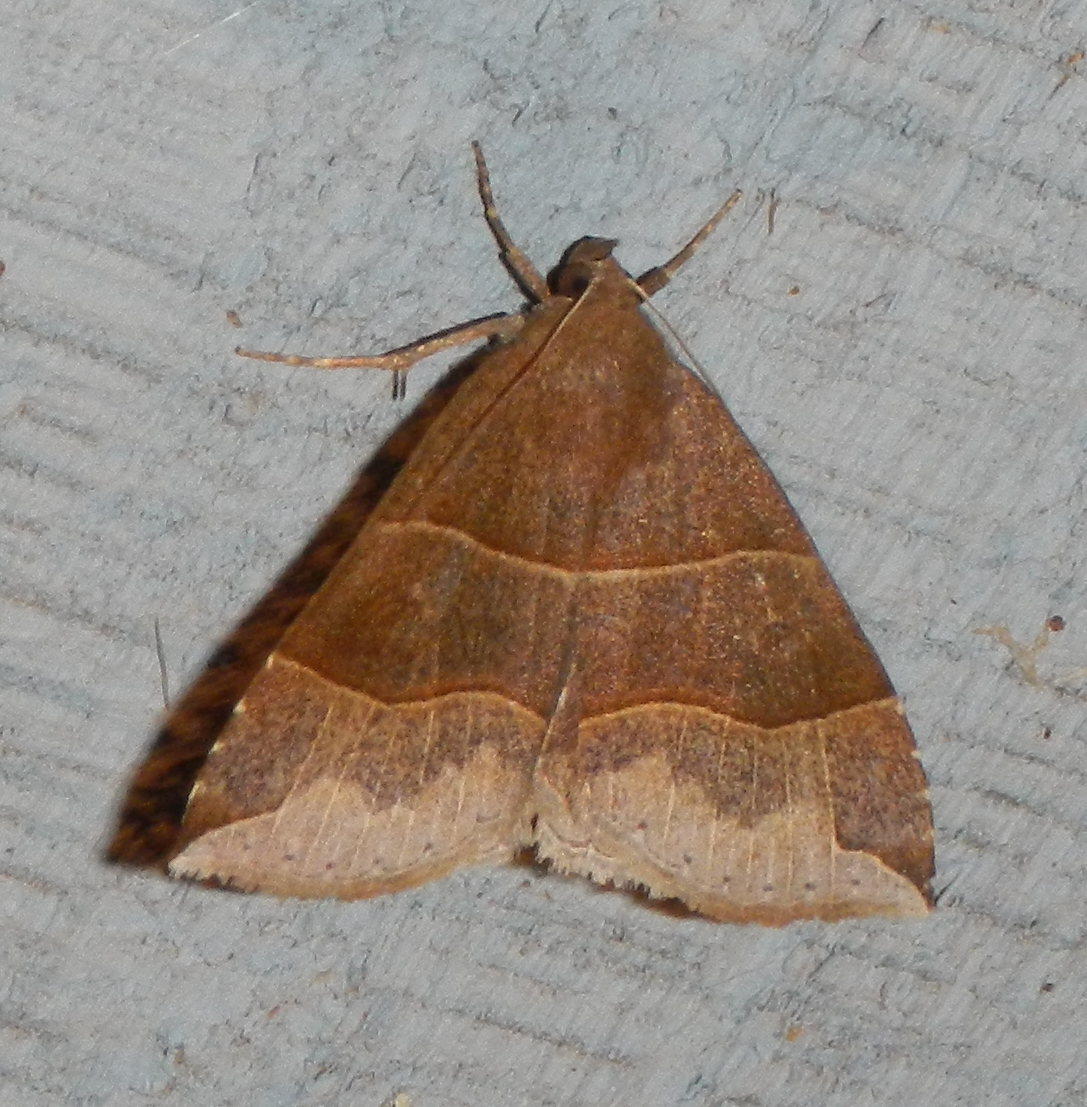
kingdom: Animalia
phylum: Arthropoda
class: Insecta
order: Lepidoptera
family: Erebidae
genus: Parallelia
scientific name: Parallelia bistriaris
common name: Maple looper moth
